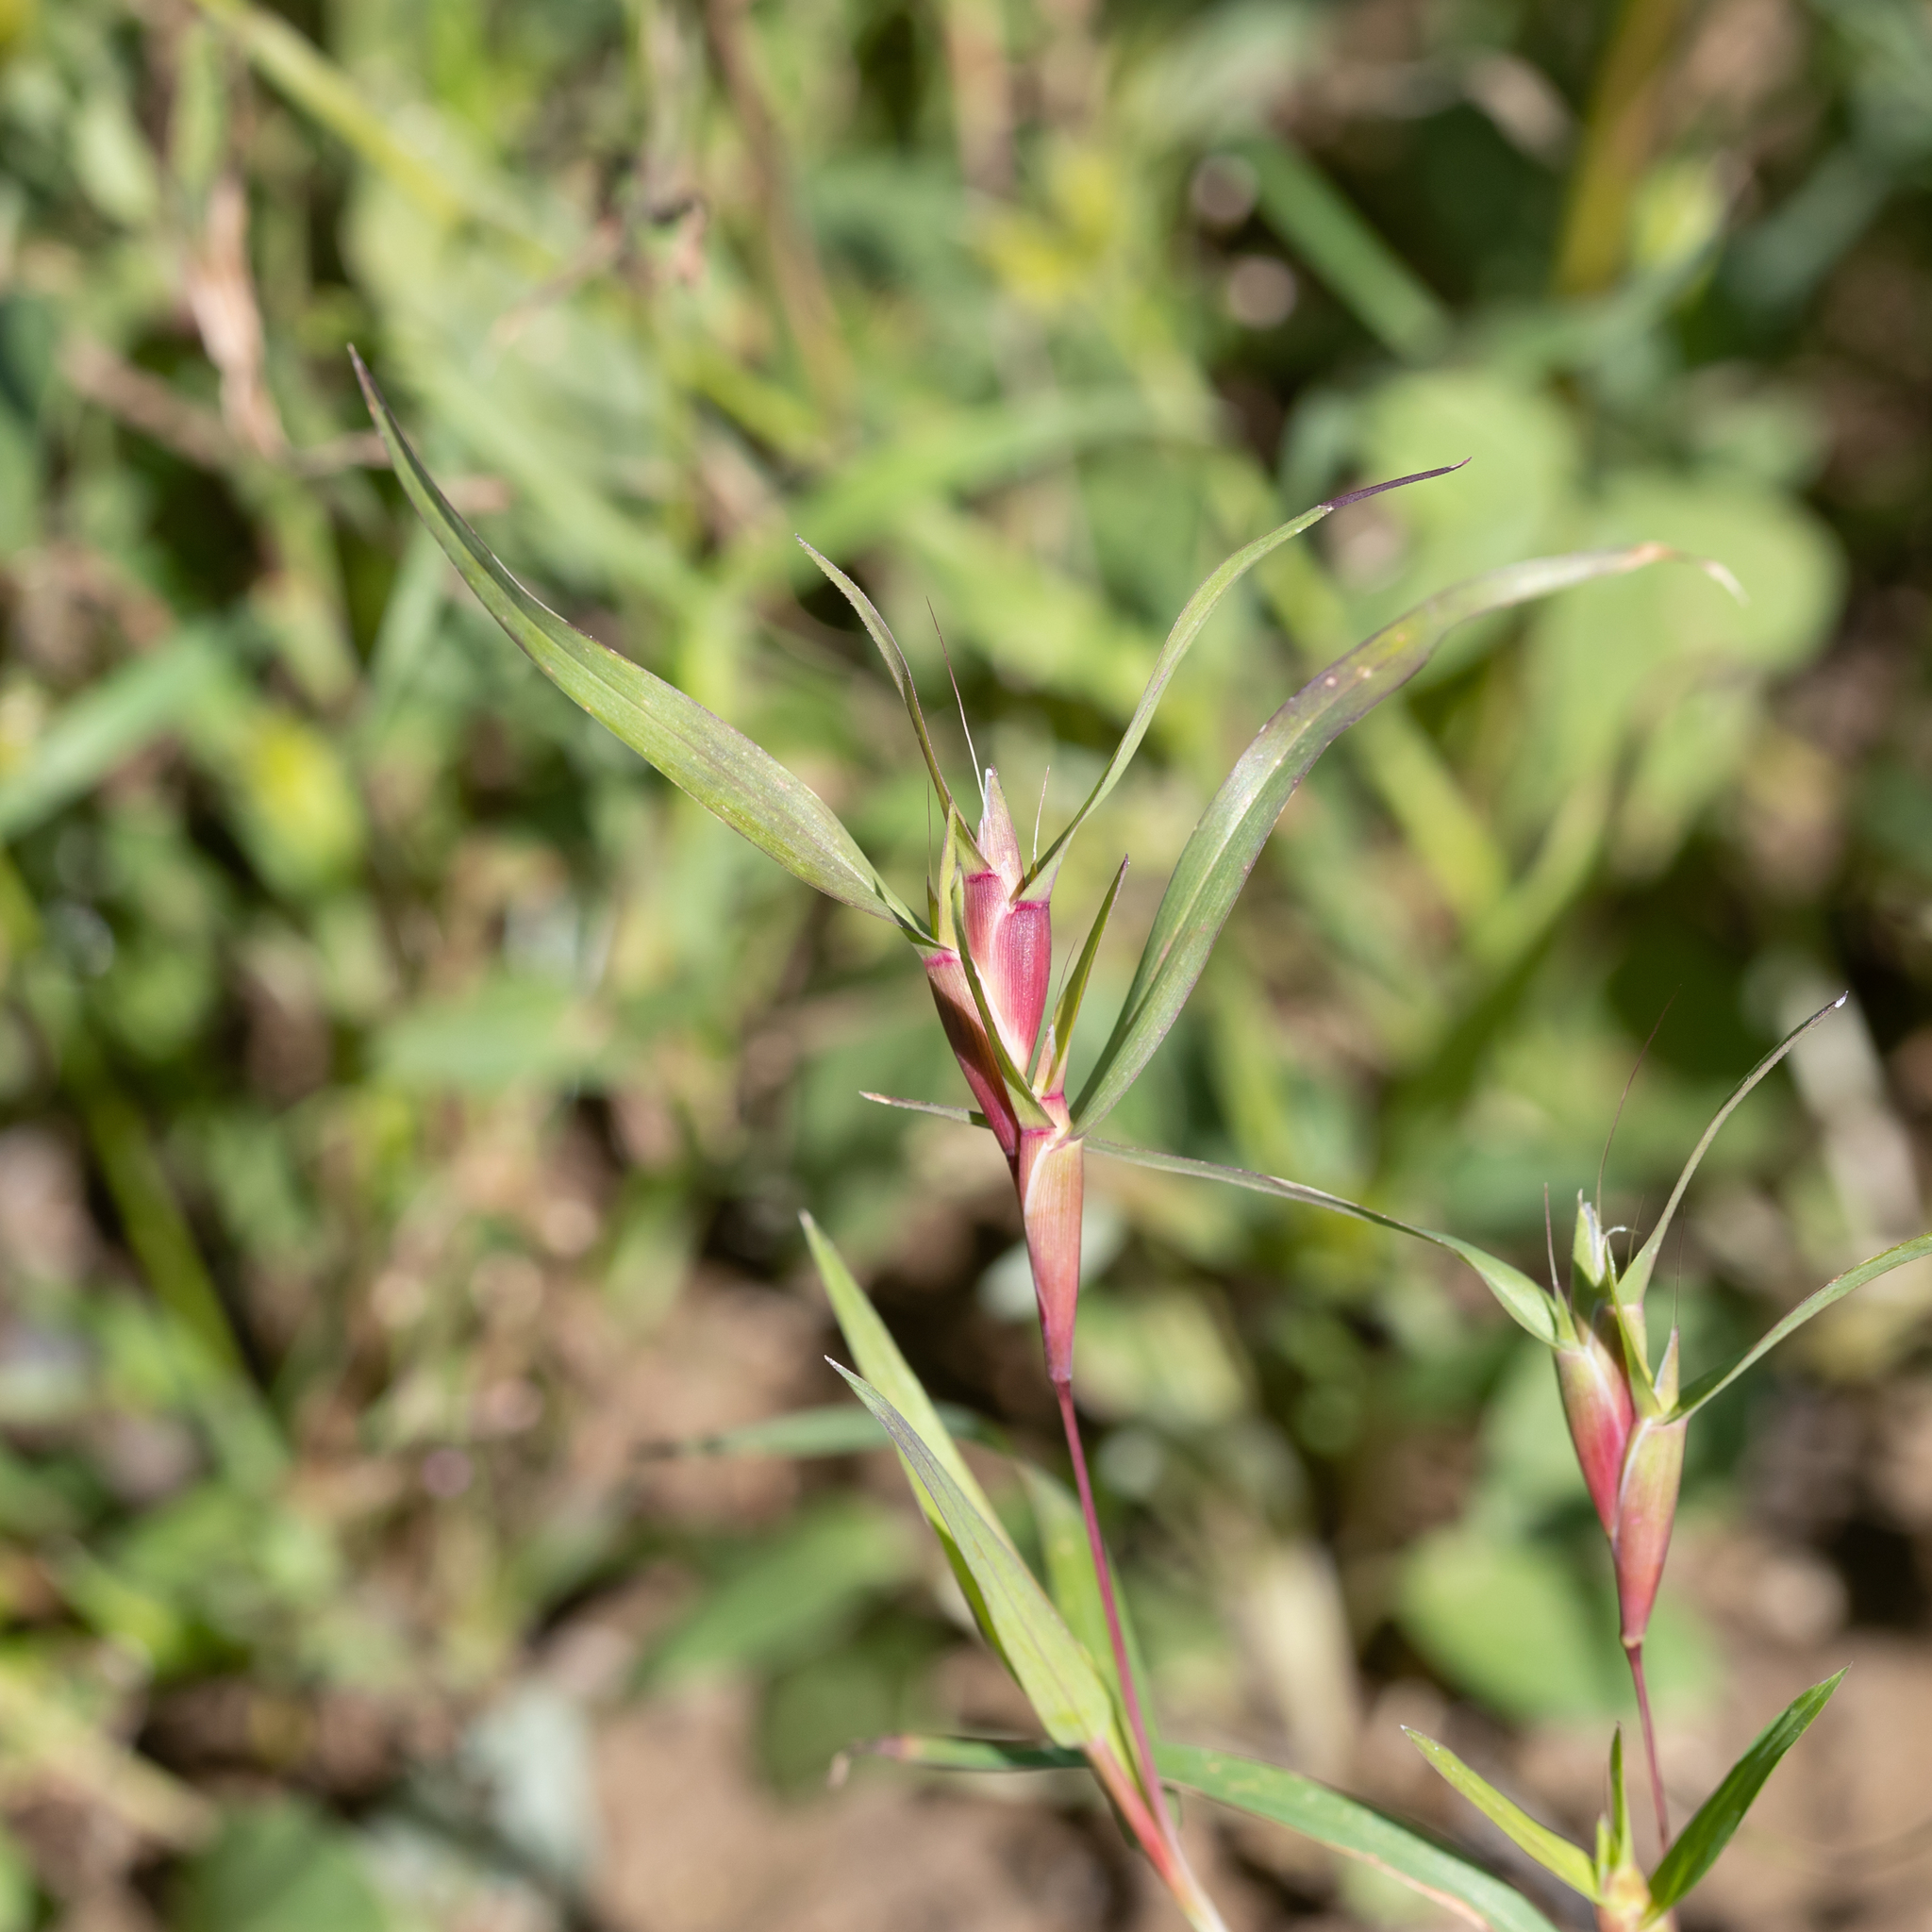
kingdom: Plantae
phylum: Tracheophyta
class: Liliopsida
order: Poales
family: Poaceae
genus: Iseilema
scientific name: Iseilema vaginiflorum
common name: Red flinders grass
